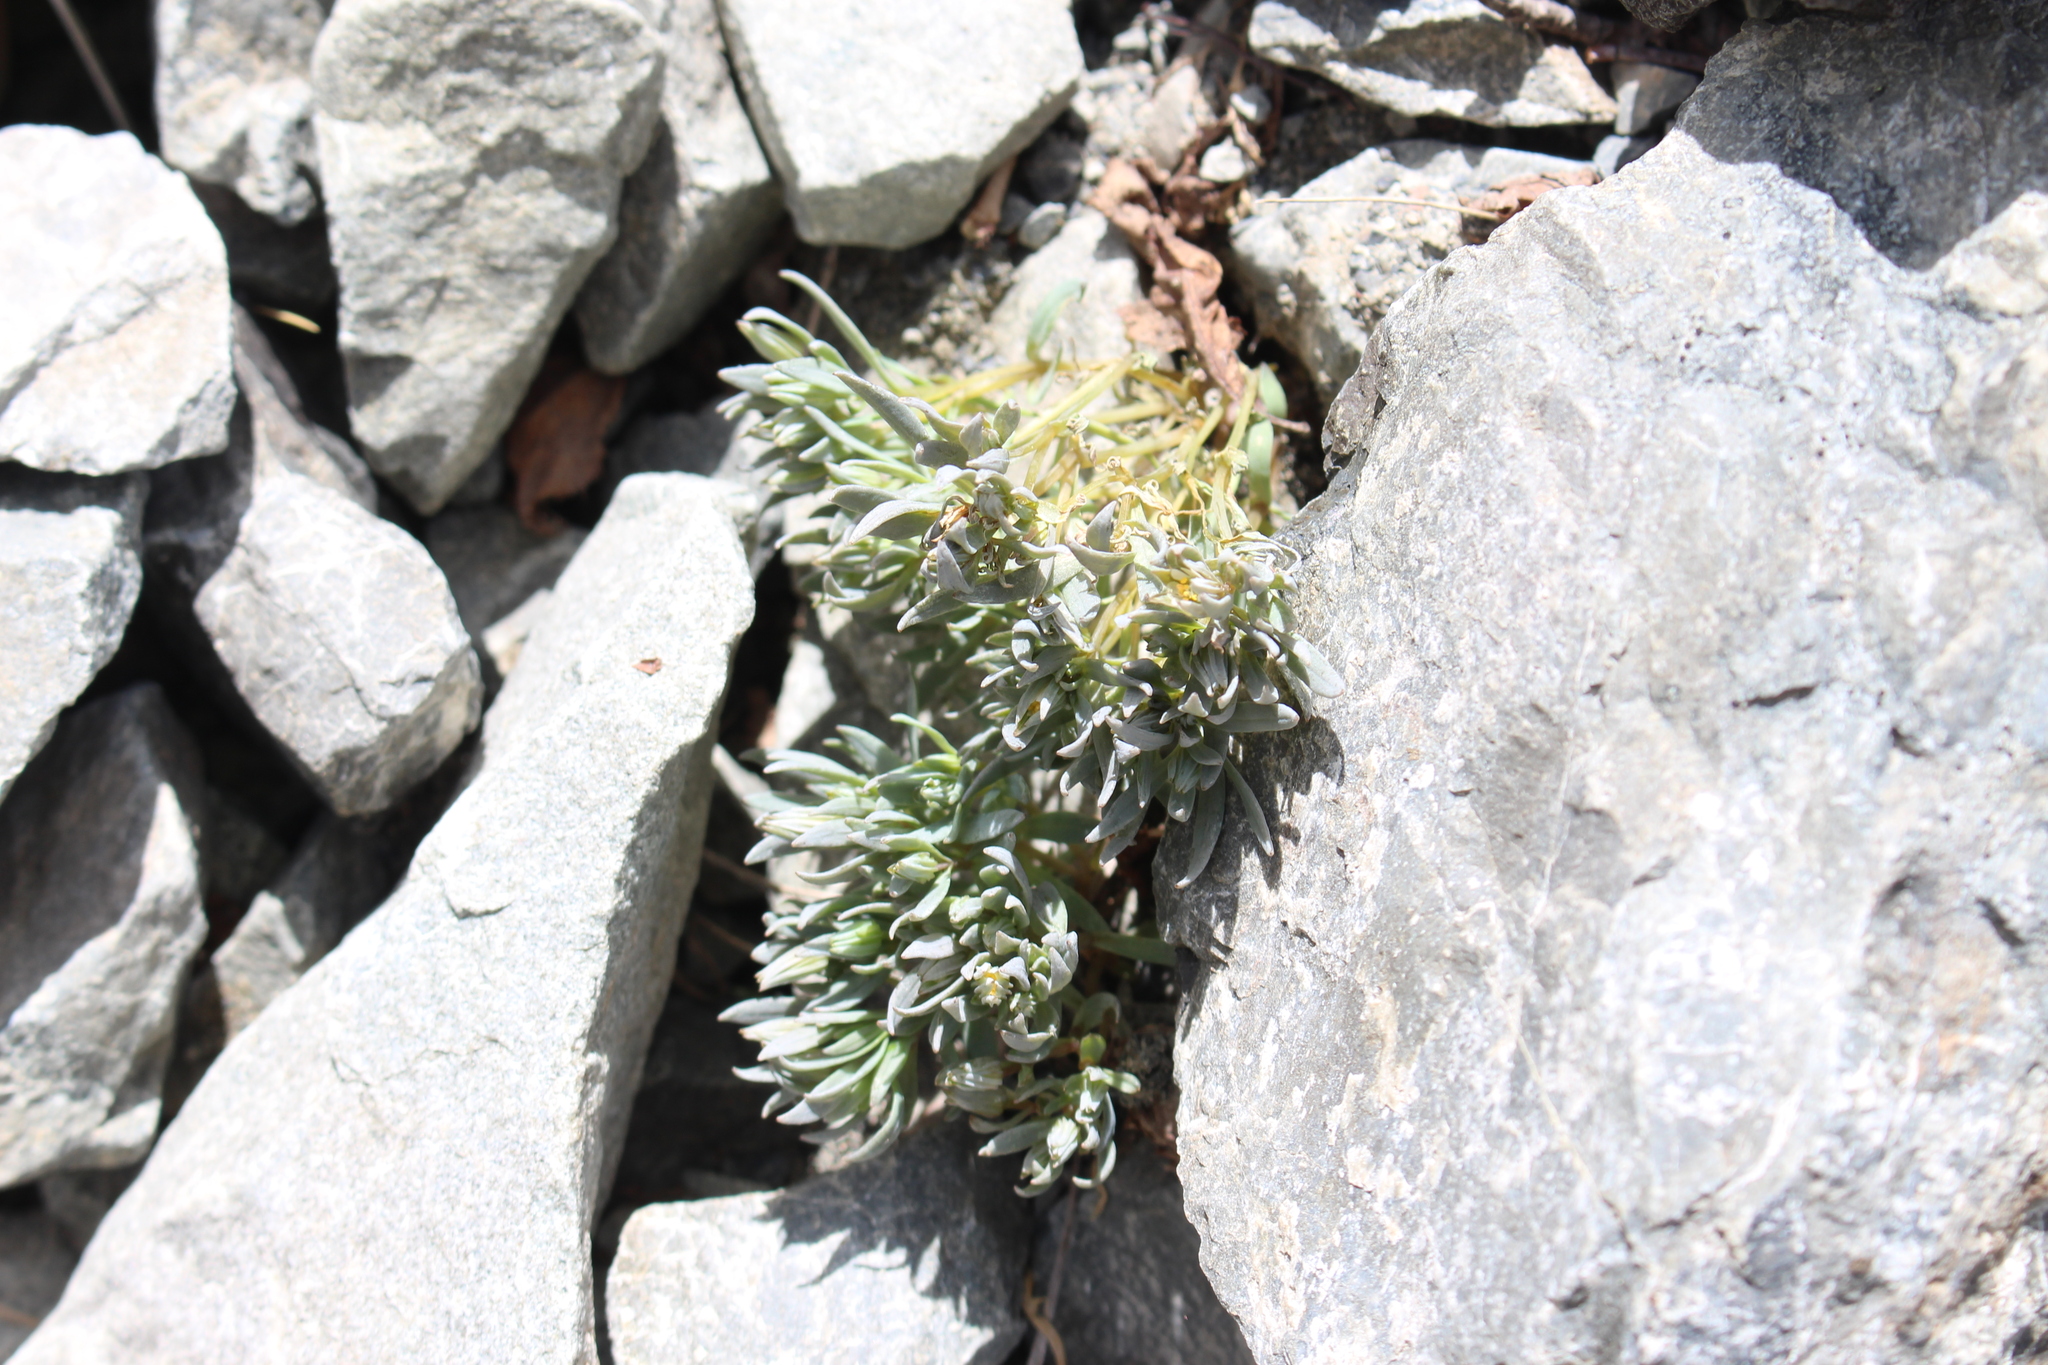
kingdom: Plantae
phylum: Tracheophyta
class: Magnoliopsida
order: Caryophyllales
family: Caryophyllaceae
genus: Stellaria
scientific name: Stellaria roughii
